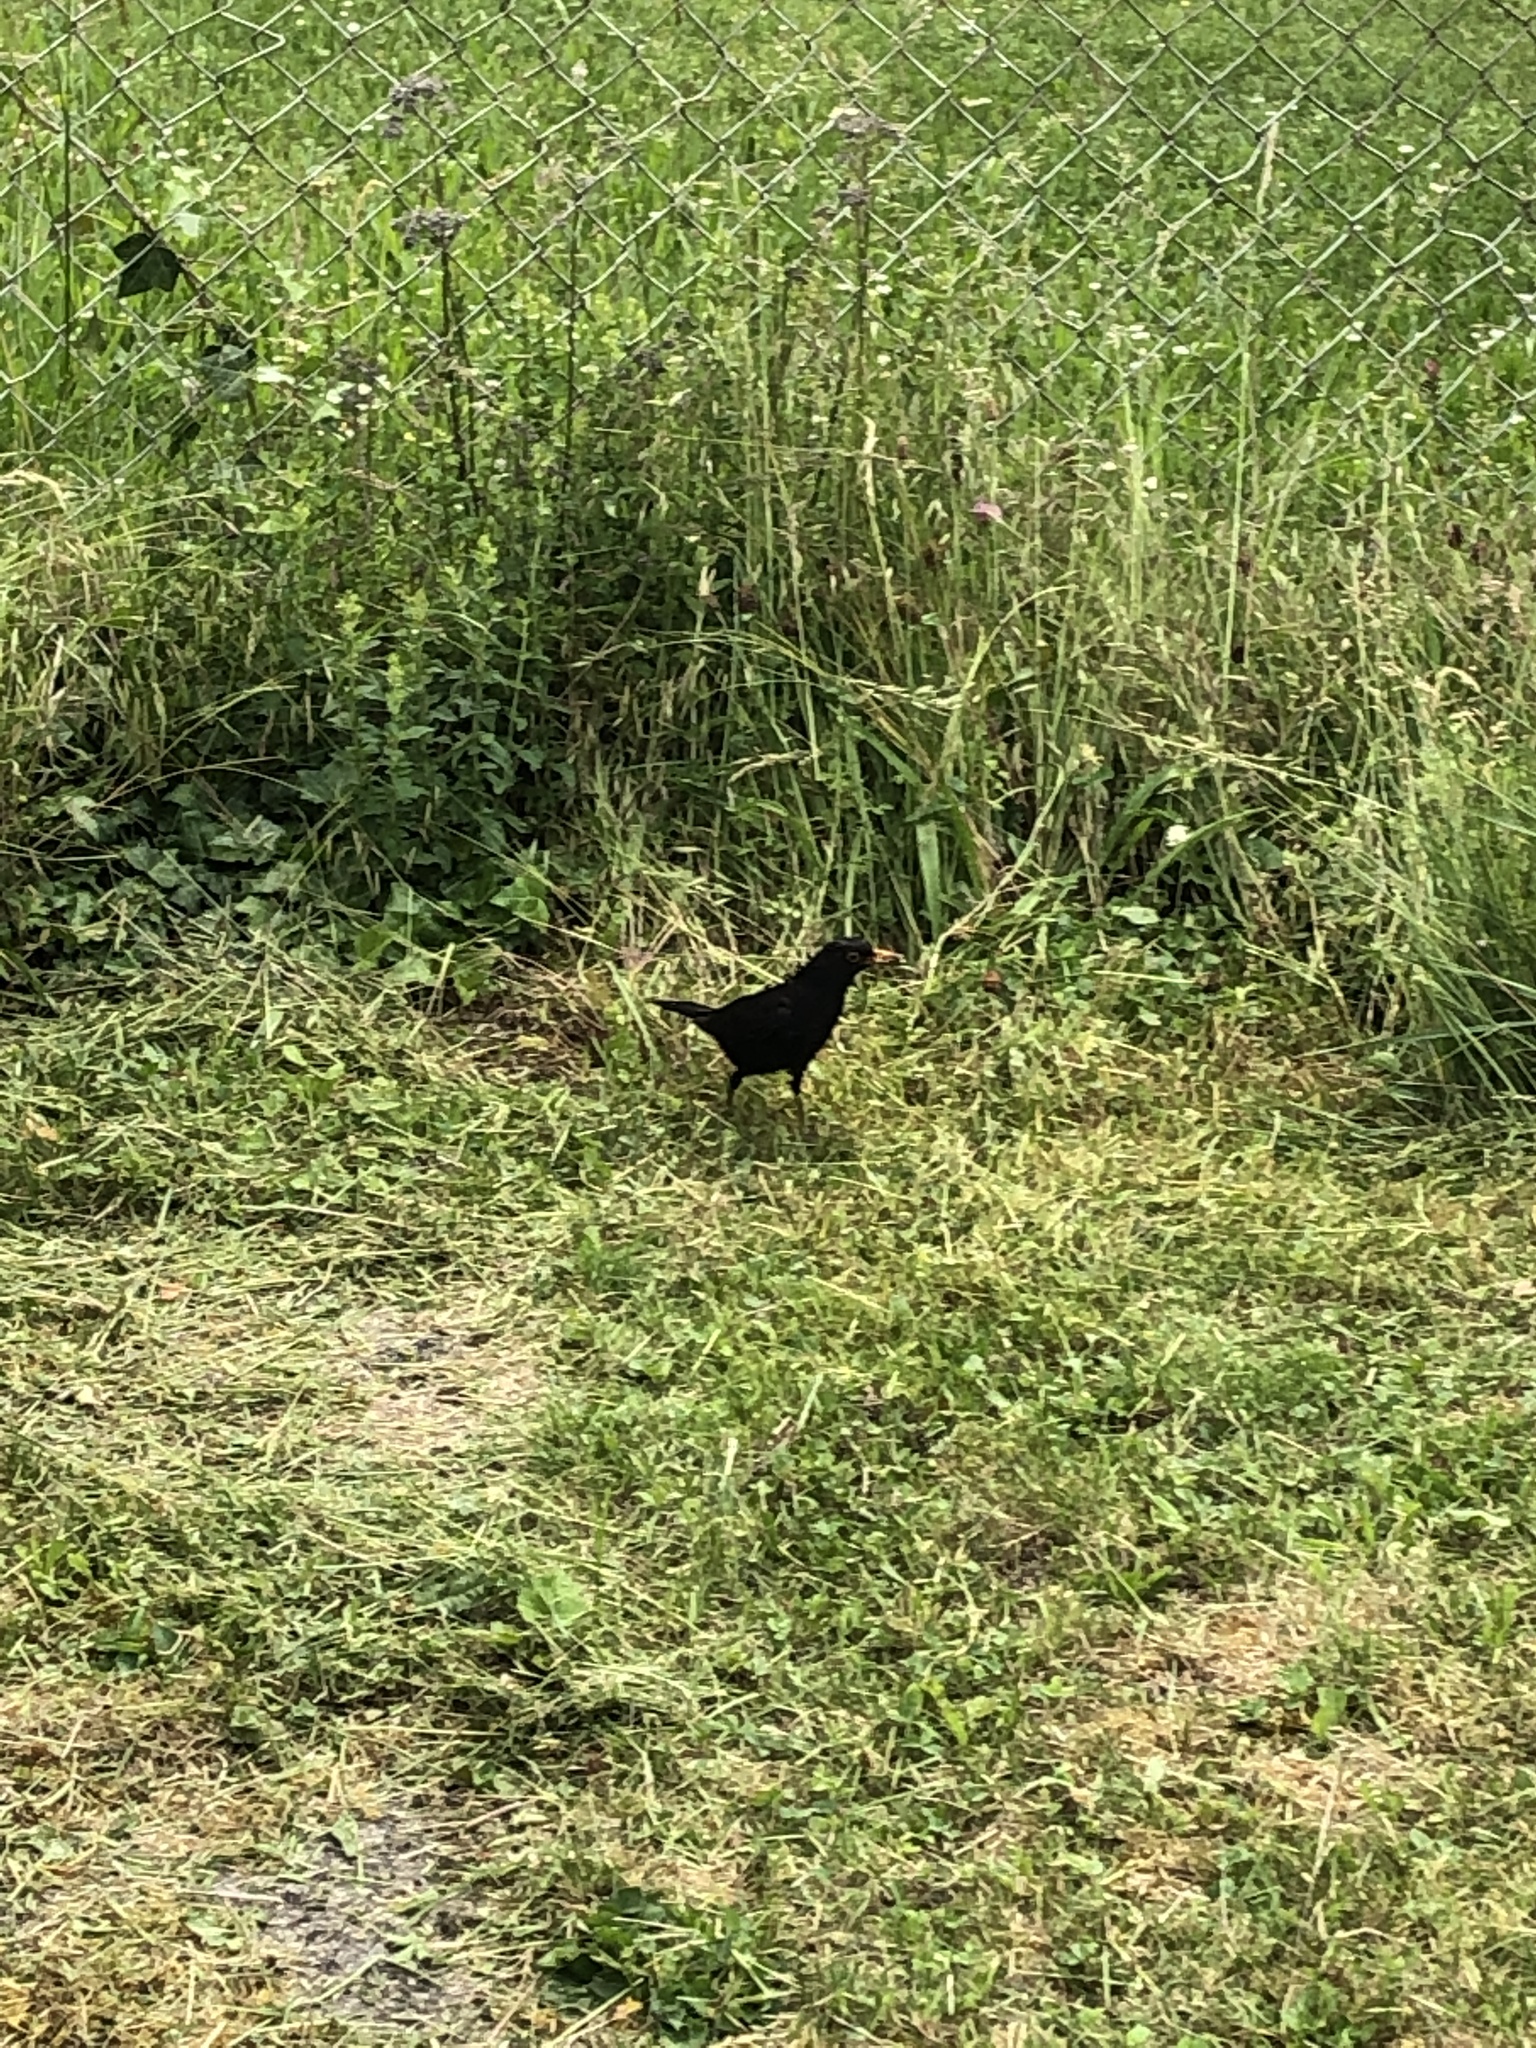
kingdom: Animalia
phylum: Chordata
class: Aves
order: Passeriformes
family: Turdidae
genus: Turdus
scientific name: Turdus merula
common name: Common blackbird
